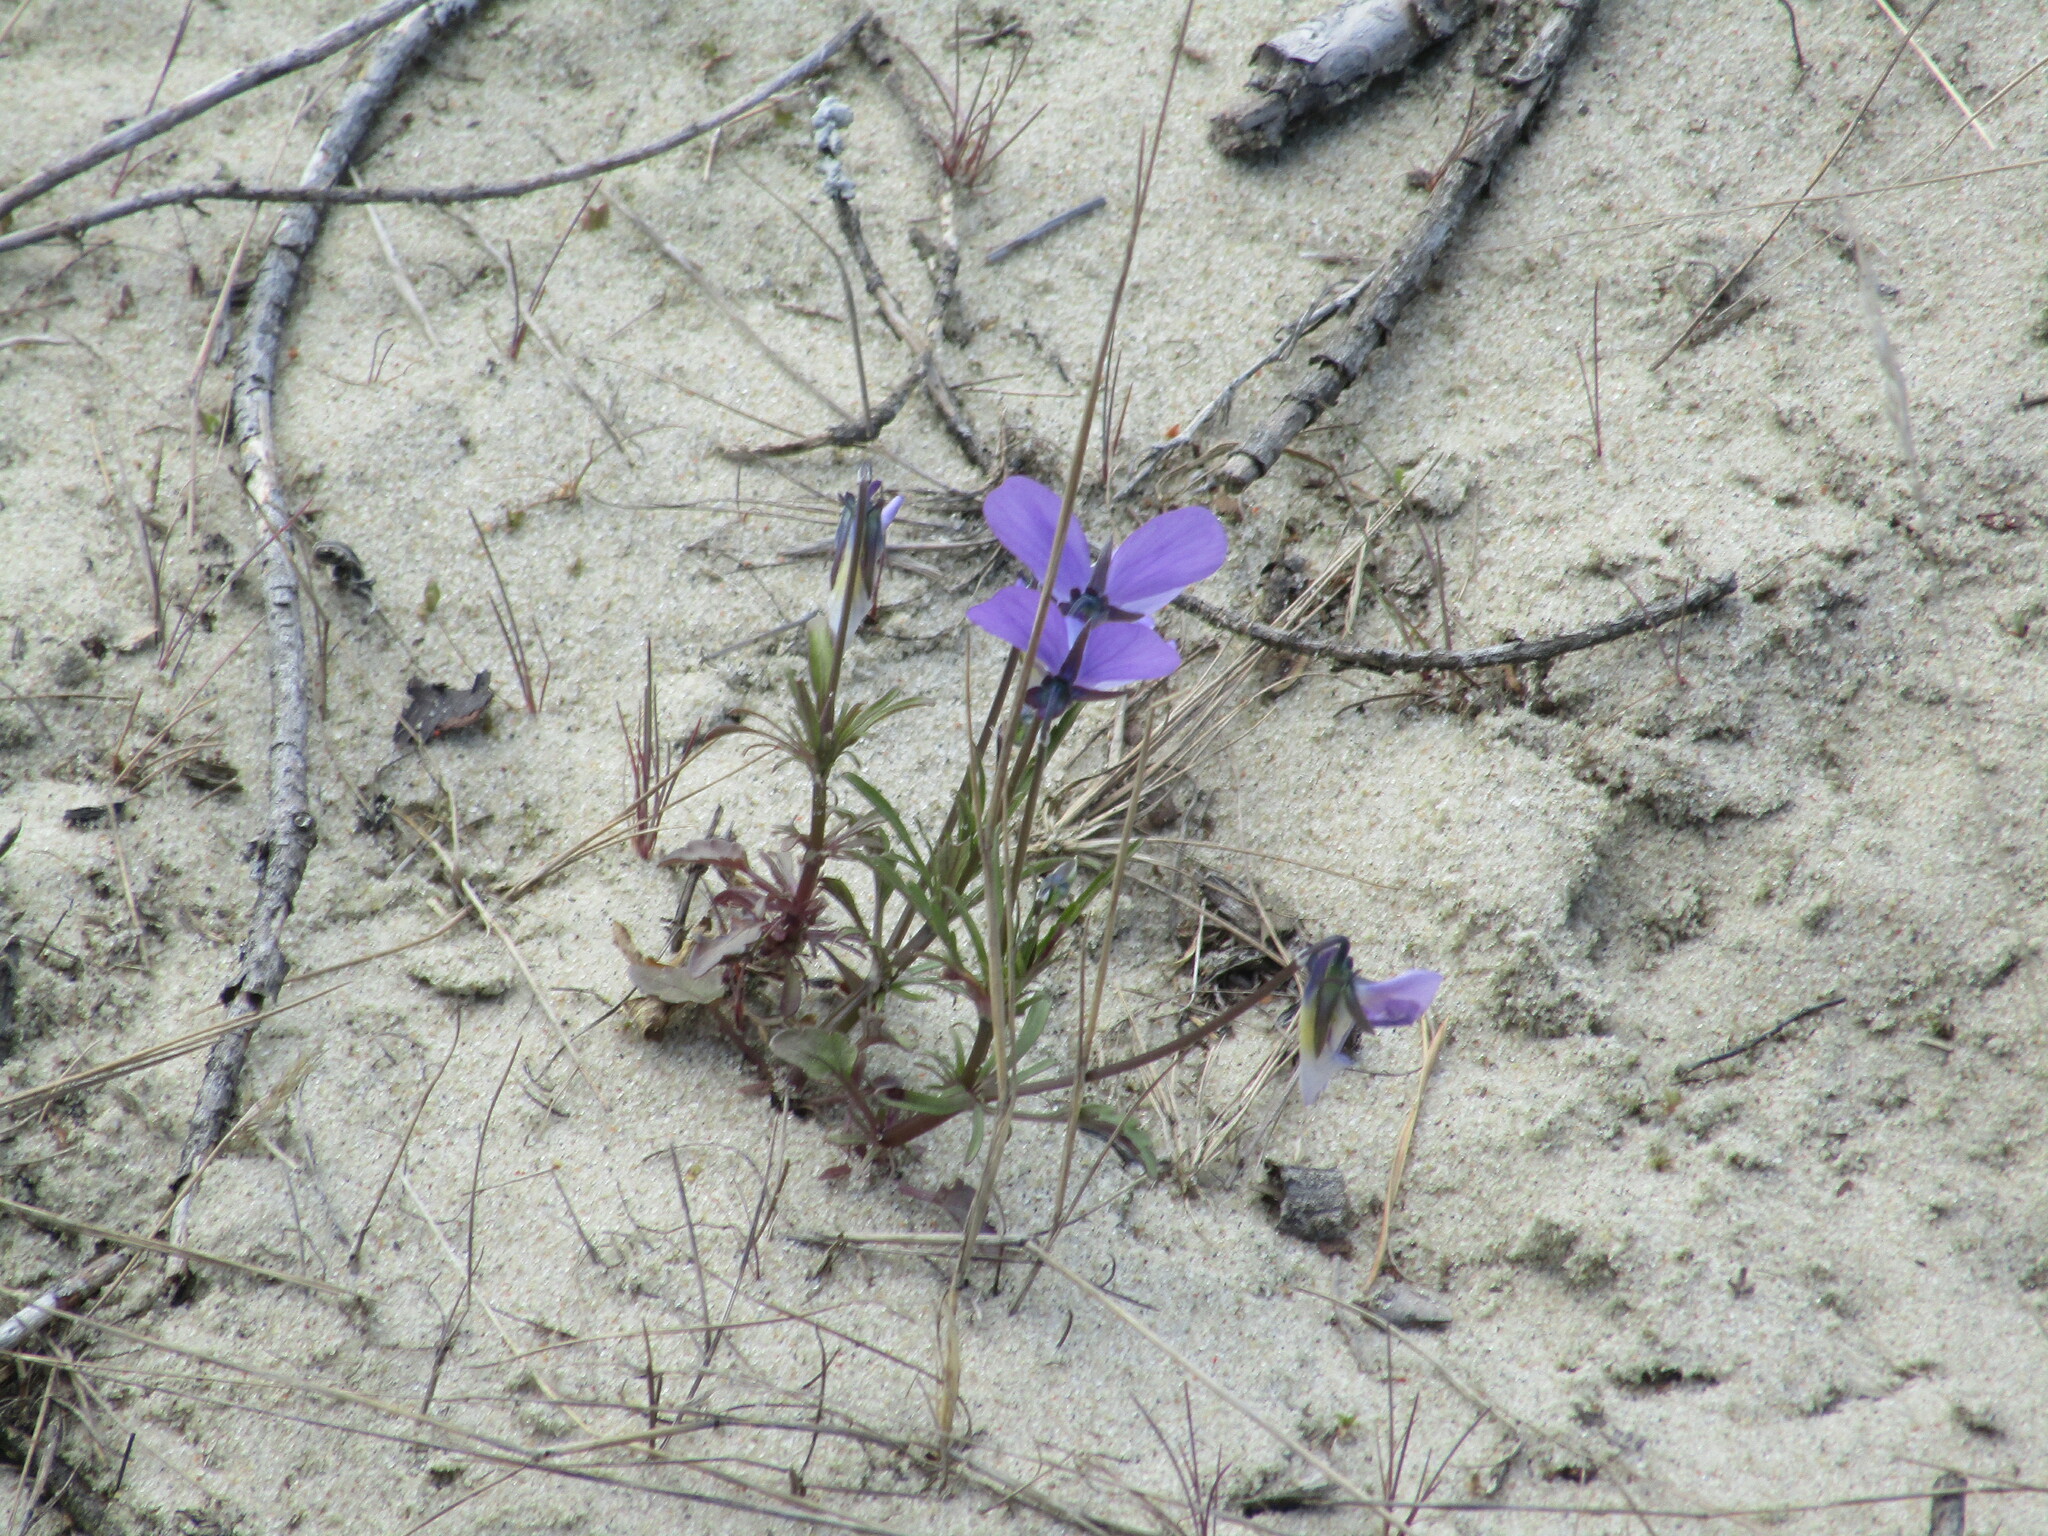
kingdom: Plantae
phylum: Tracheophyta
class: Magnoliopsida
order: Malpighiales
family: Violaceae
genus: Viola
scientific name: Viola tricolor
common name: Pansy
